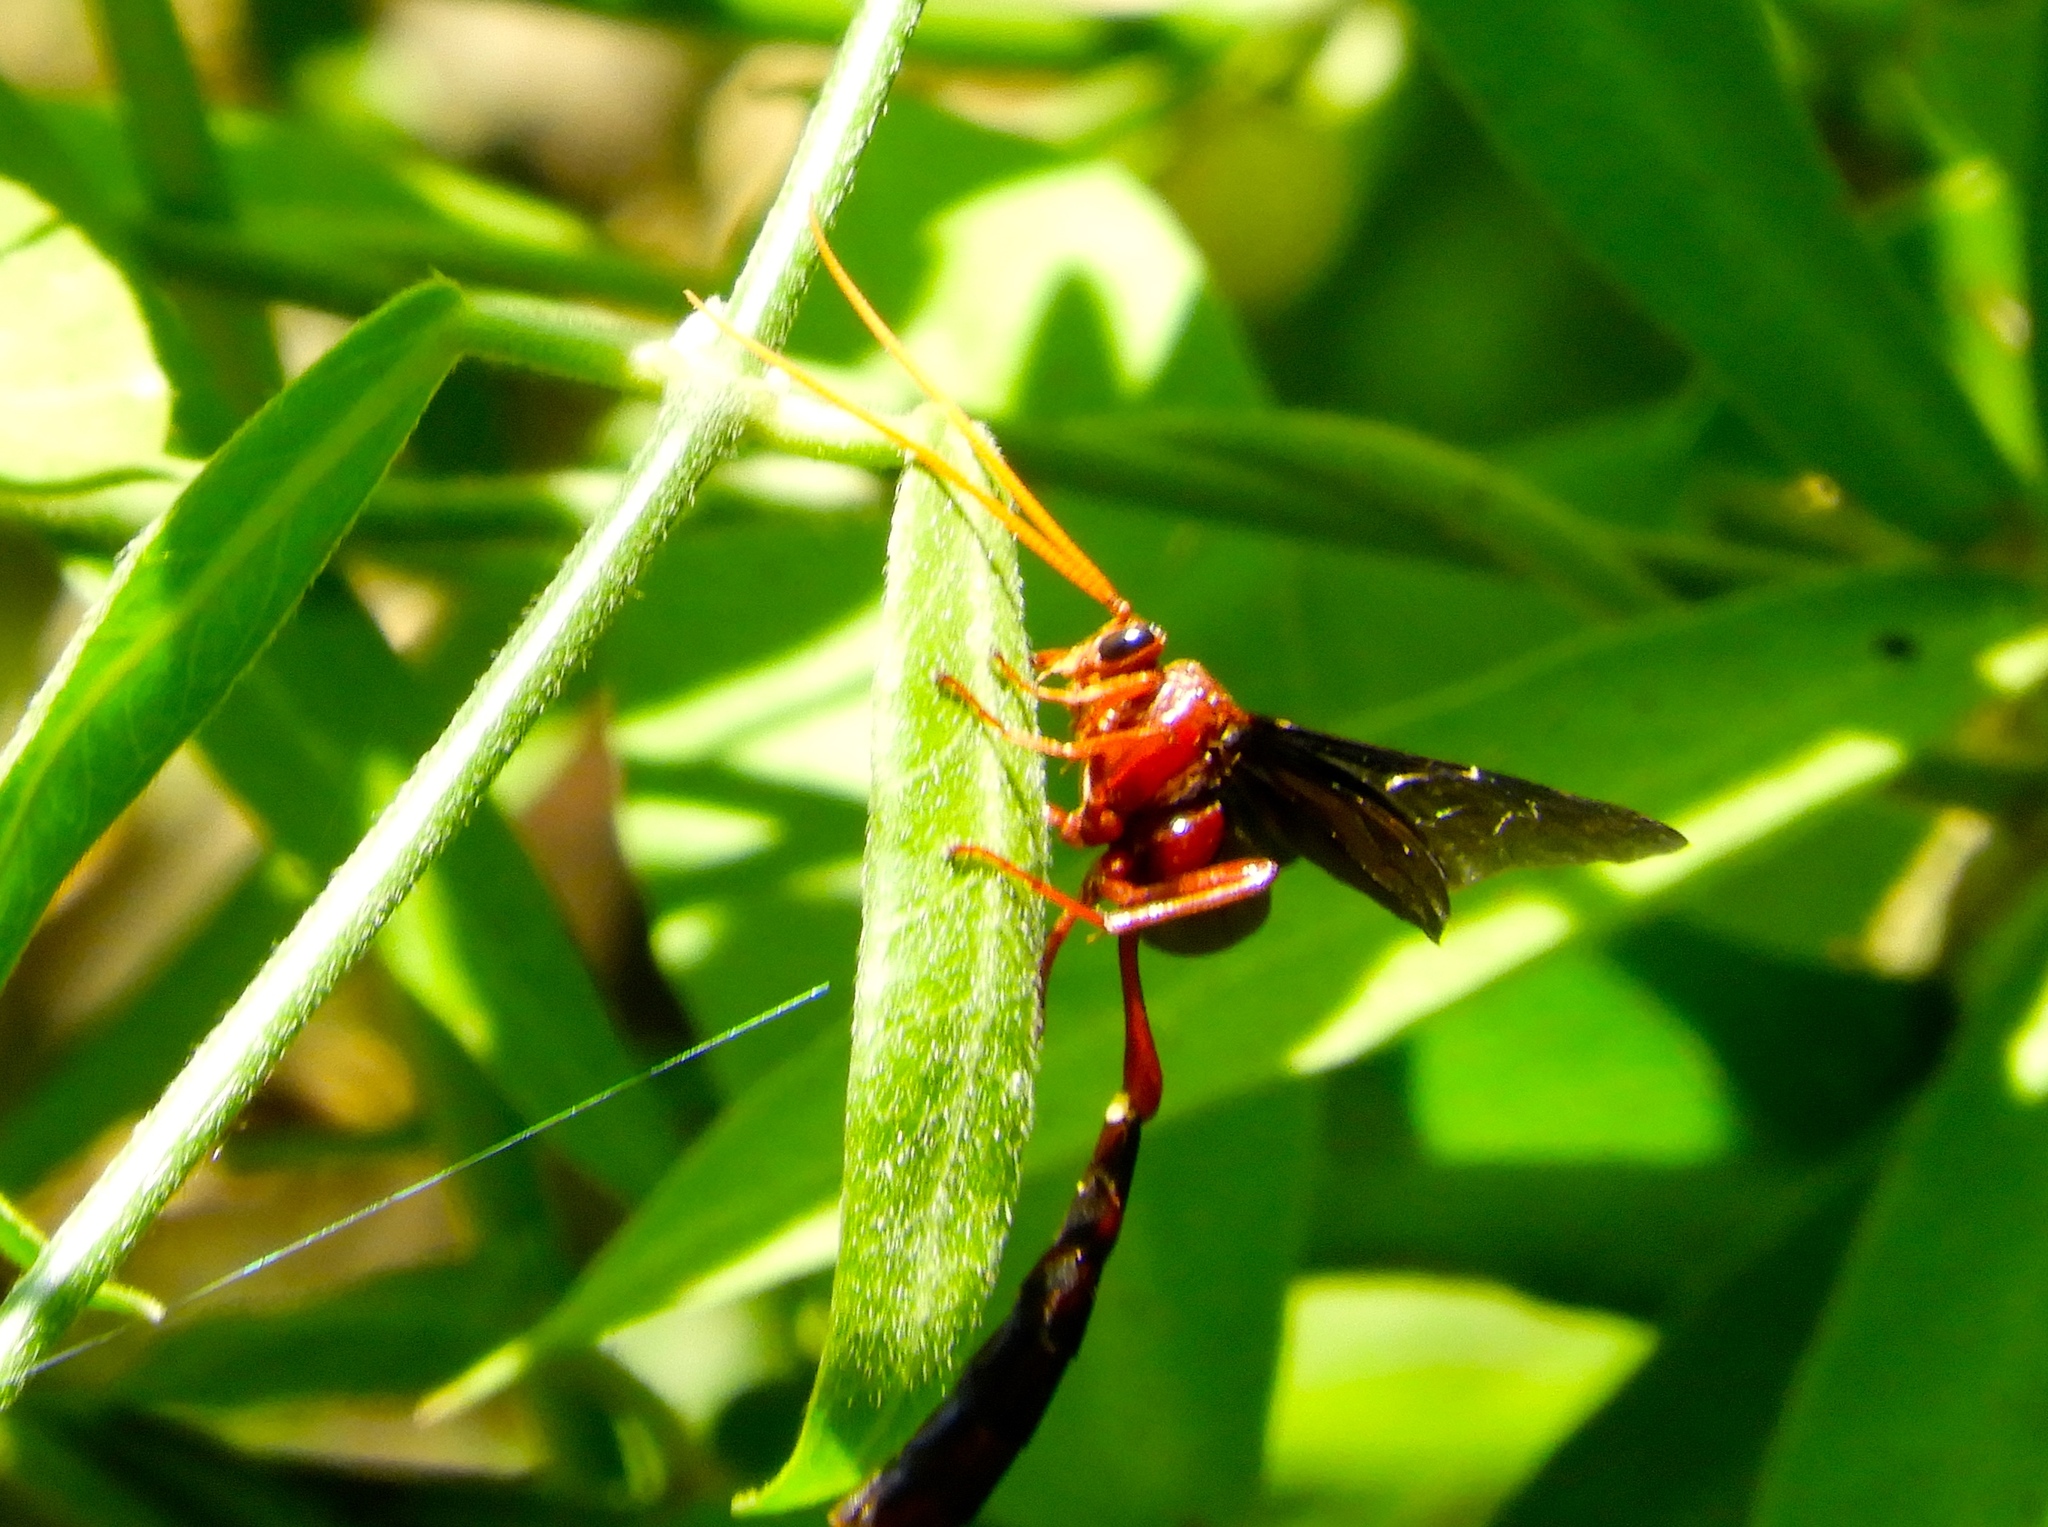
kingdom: Animalia
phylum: Arthropoda
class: Insecta
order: Hymenoptera
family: Ichneumonidae
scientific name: Ichneumonidae
